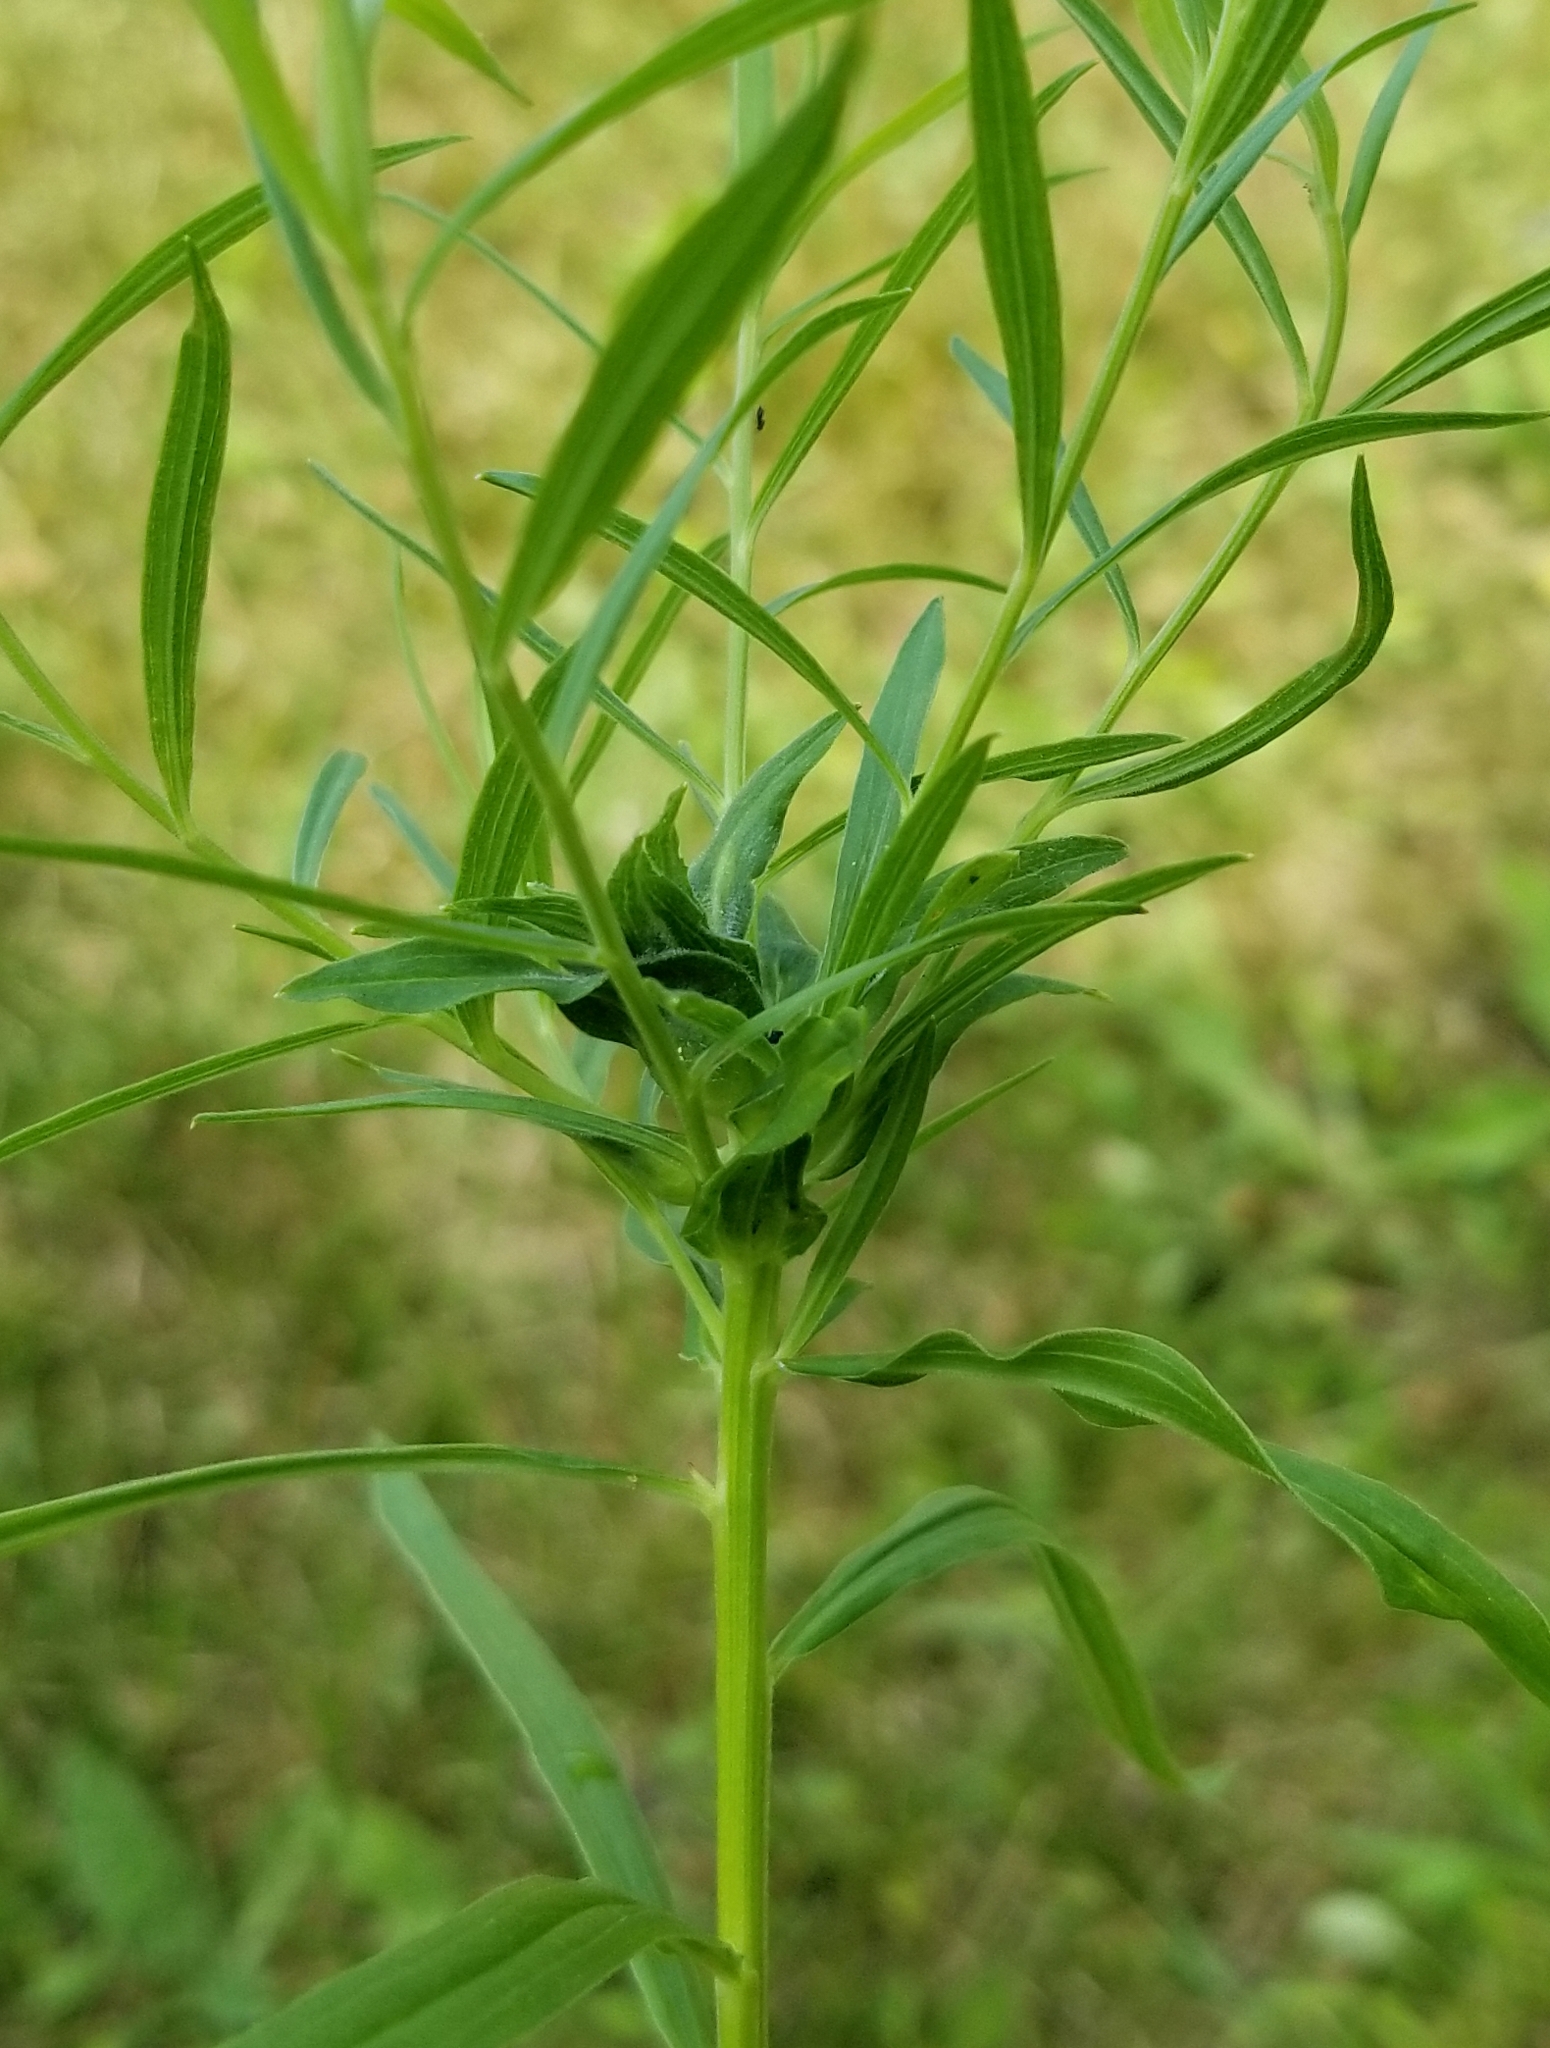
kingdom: Animalia
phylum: Arthropoda
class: Insecta
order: Diptera
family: Cecidomyiidae
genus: Asphondylia
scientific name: Asphondylia pseudorosa
